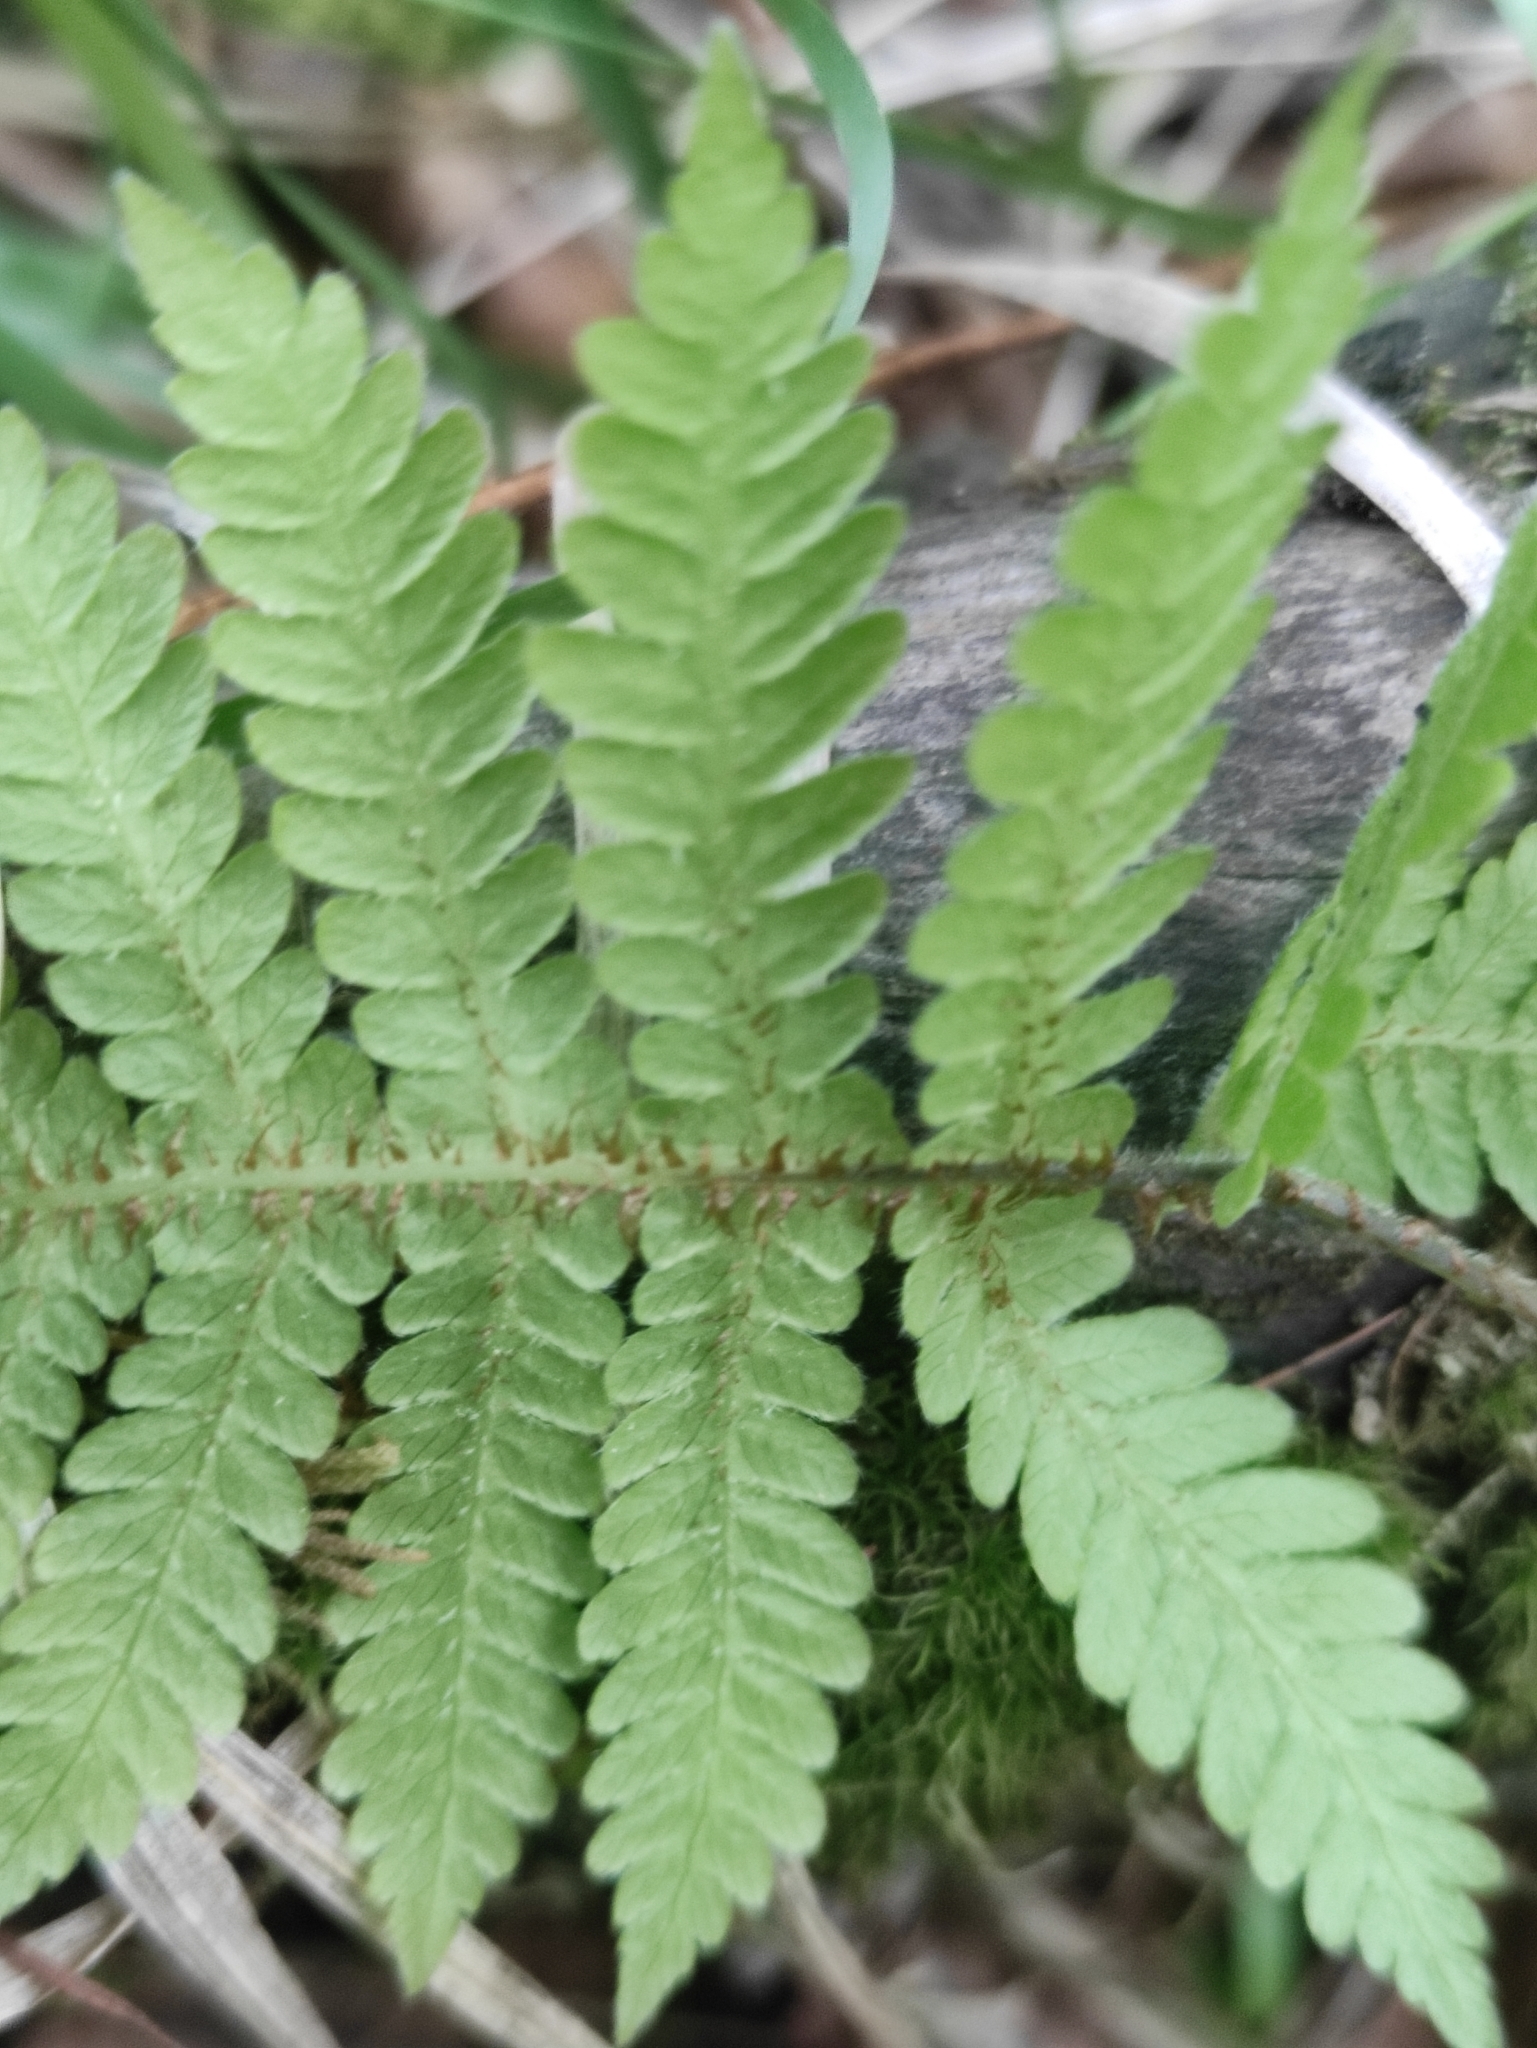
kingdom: Plantae
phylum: Tracheophyta
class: Polypodiopsida
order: Polypodiales
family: Thelypteridaceae
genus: Phegopteris
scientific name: Phegopteris connectilis
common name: Beech fern
